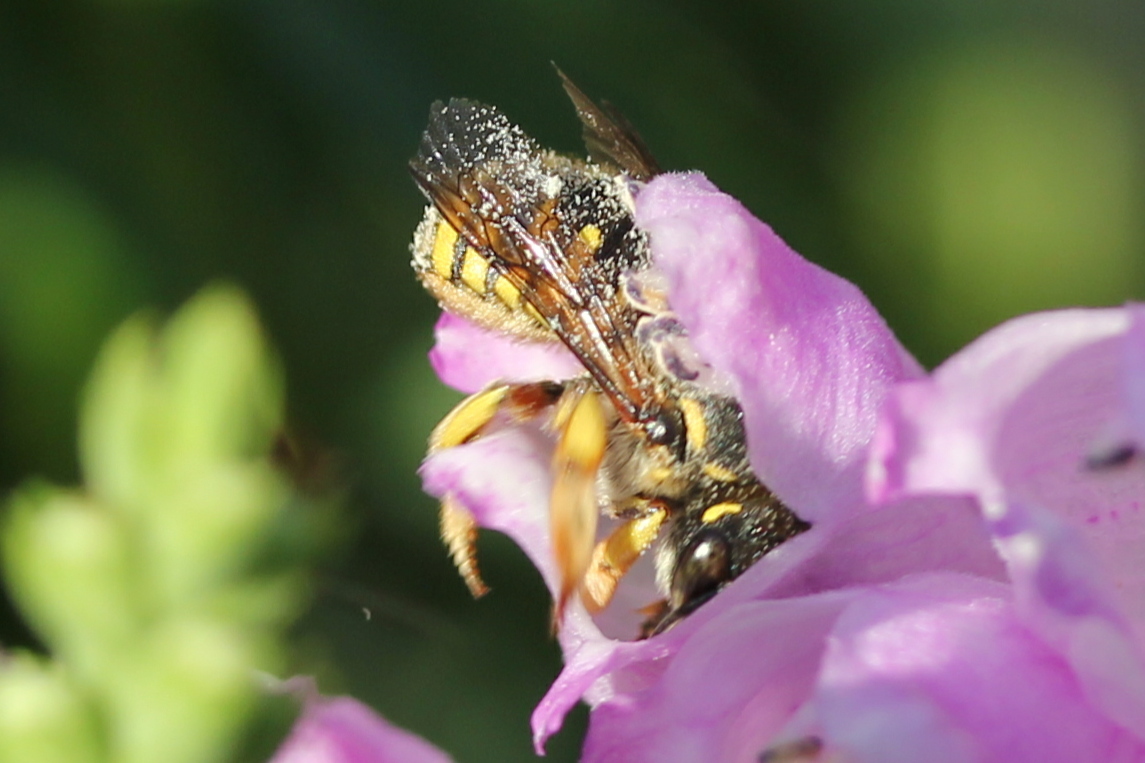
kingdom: Animalia
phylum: Arthropoda
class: Insecta
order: Hymenoptera
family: Megachilidae
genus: Anthidium
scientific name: Anthidium manicatum
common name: Wool carder bee
